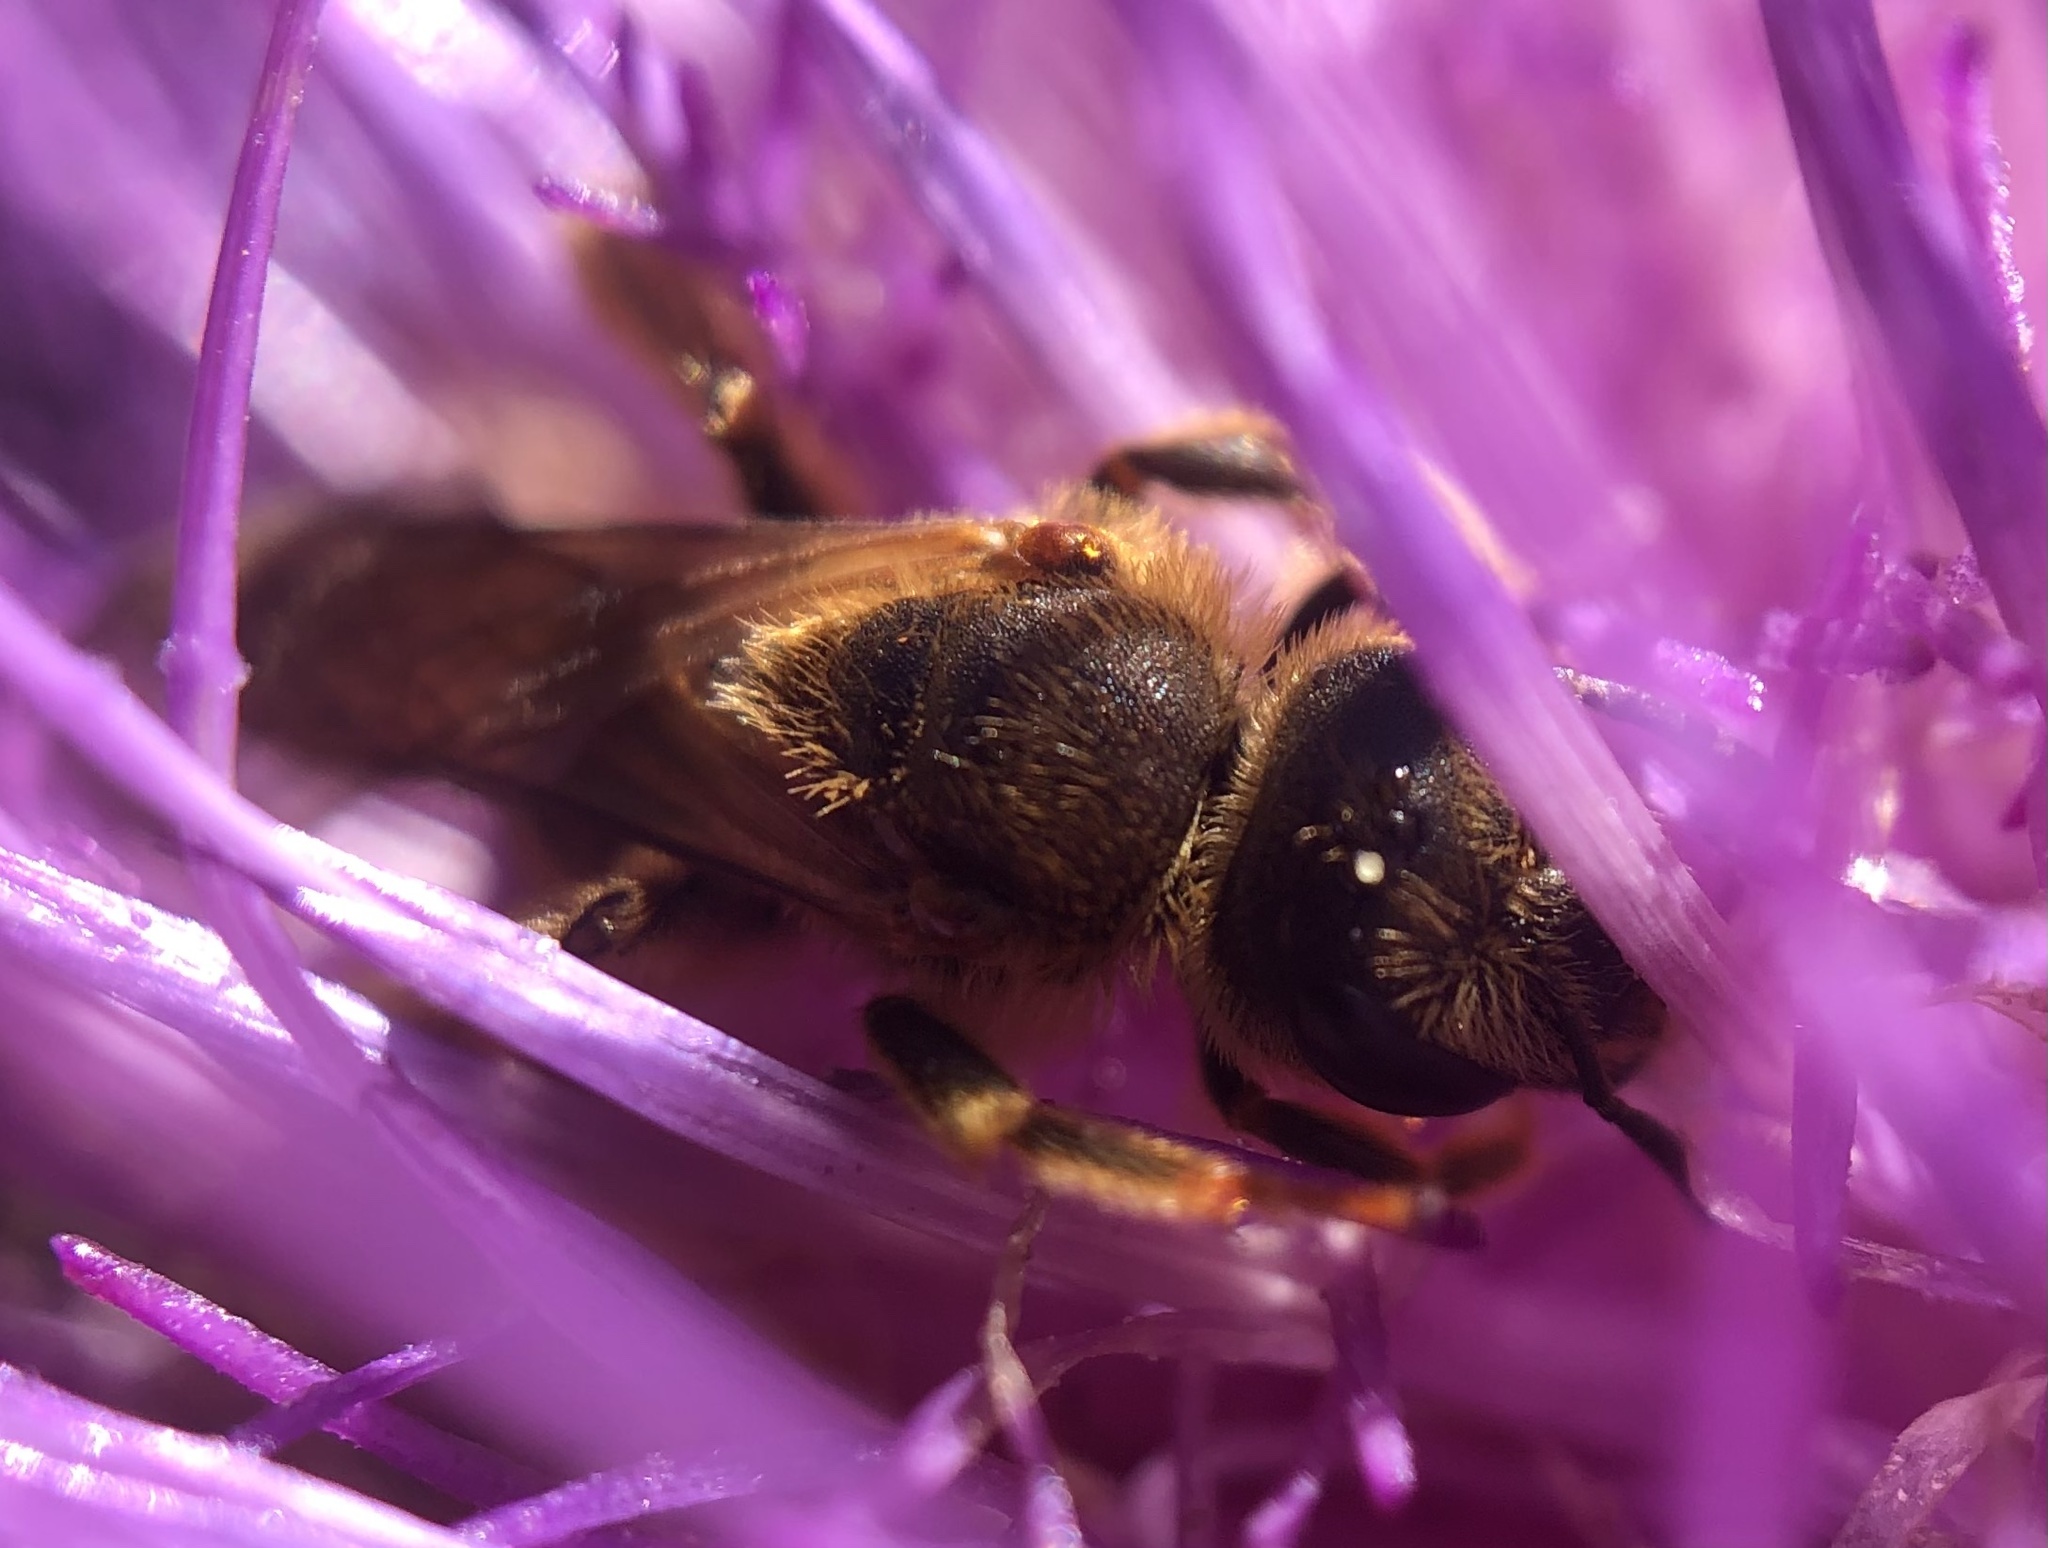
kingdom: Animalia
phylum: Arthropoda
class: Insecta
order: Hymenoptera
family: Halictidae
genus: Halictus
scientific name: Halictus scabiosae
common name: Great banded furrow bee
